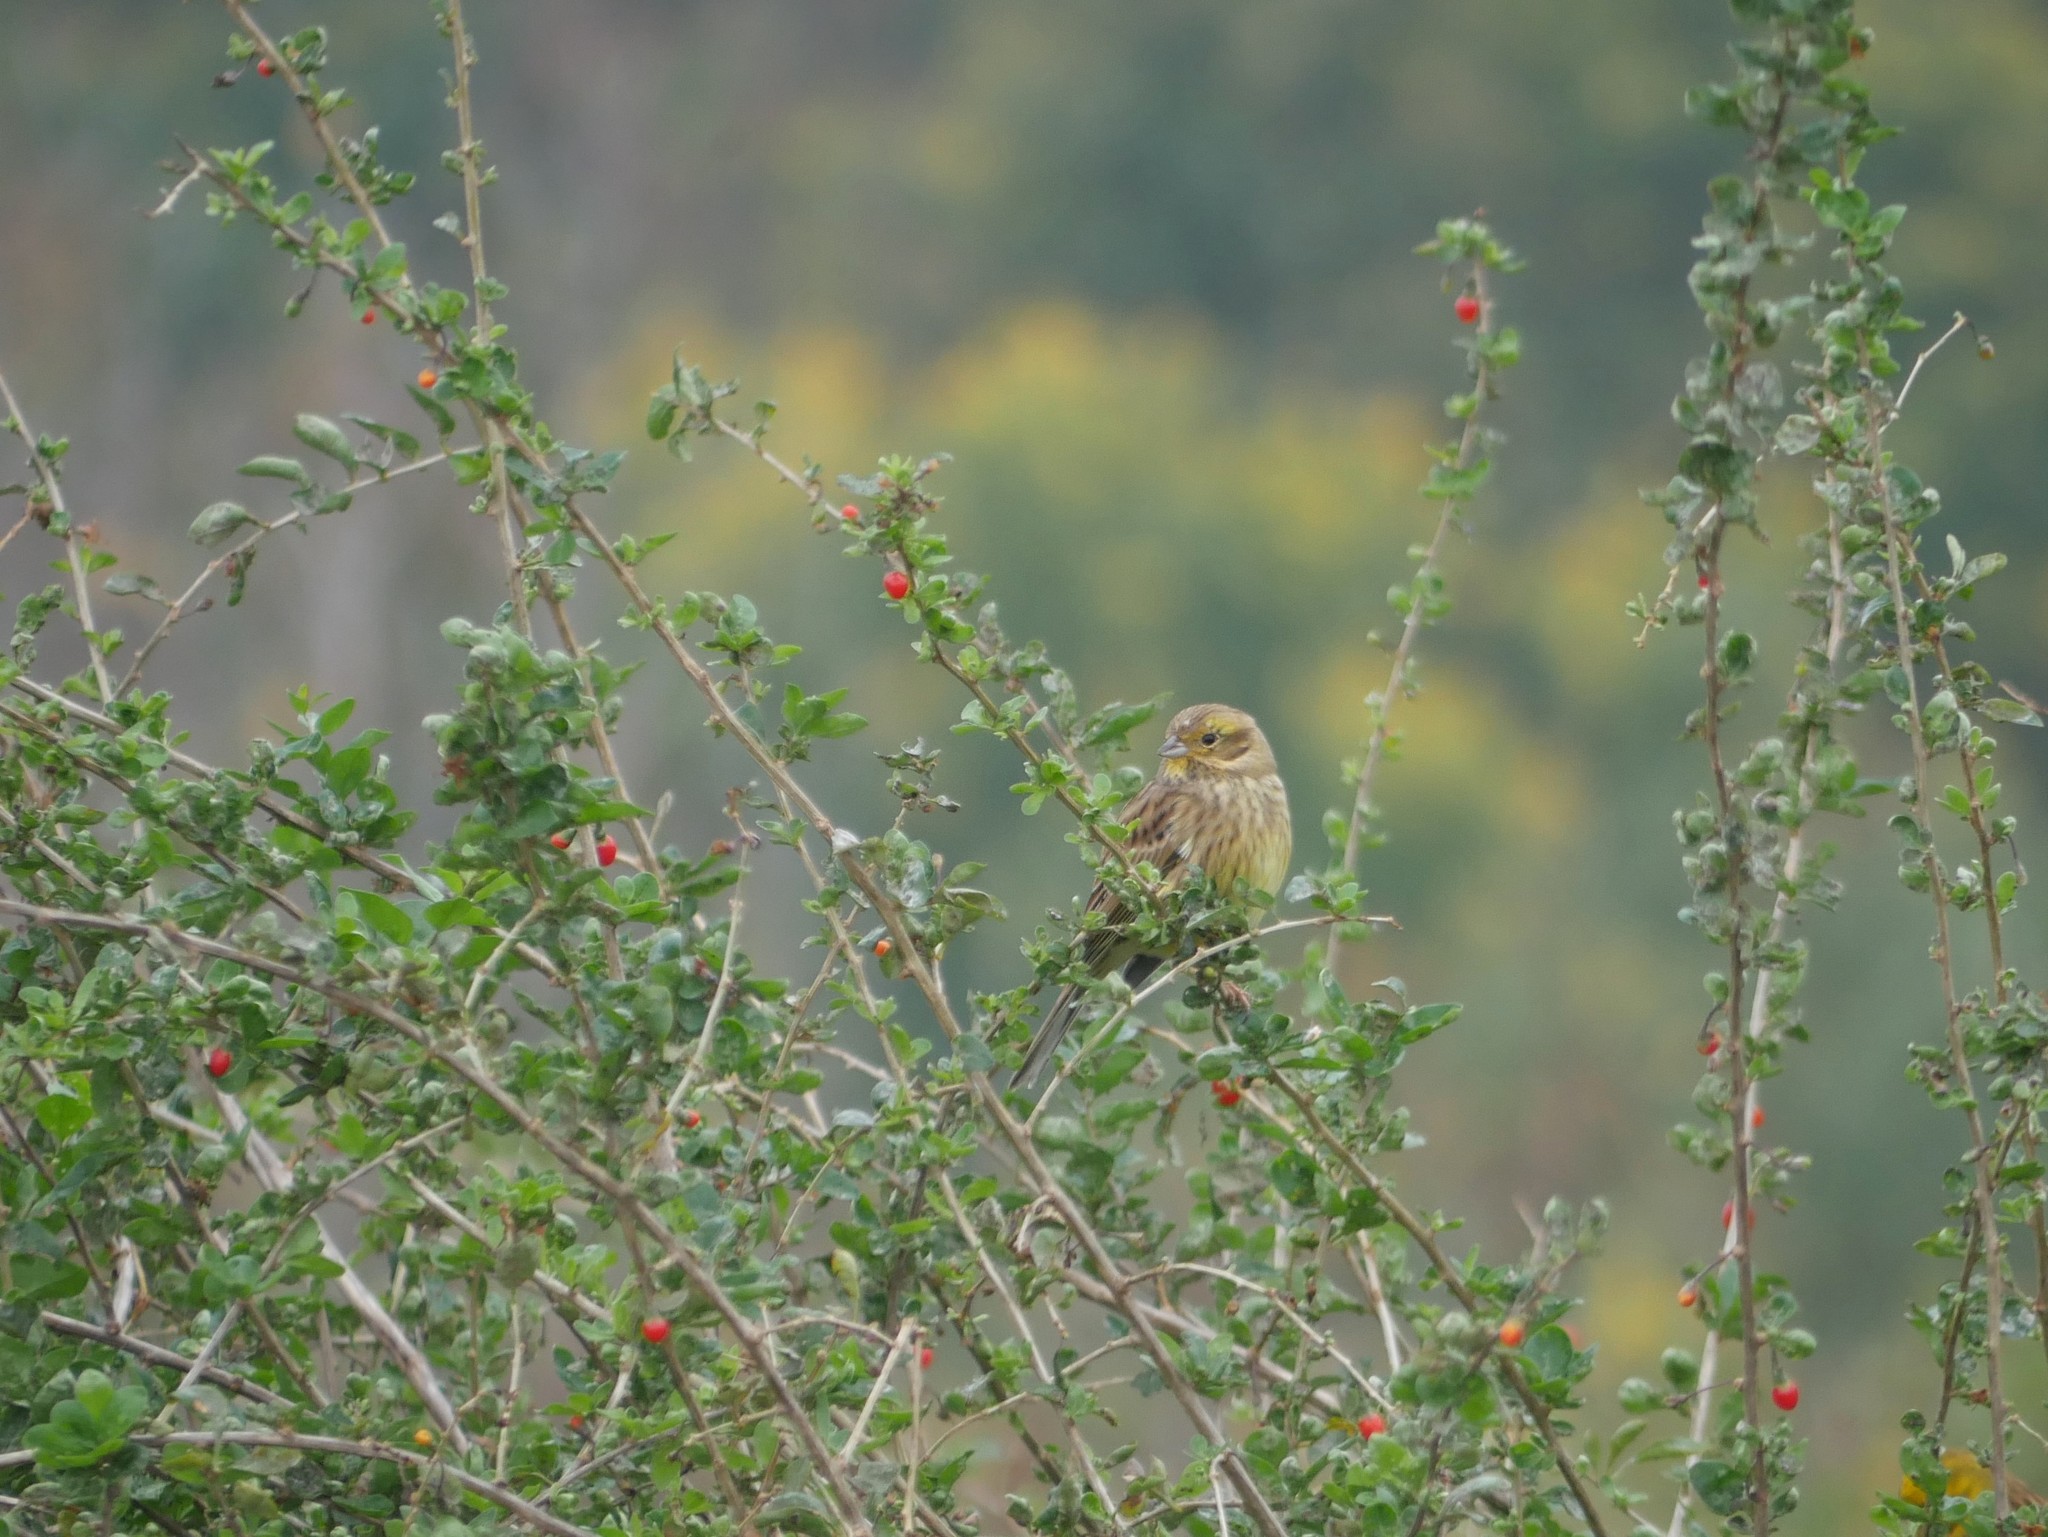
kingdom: Animalia
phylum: Chordata
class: Aves
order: Passeriformes
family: Emberizidae
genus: Emberiza
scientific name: Emberiza citrinella
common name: Yellowhammer
